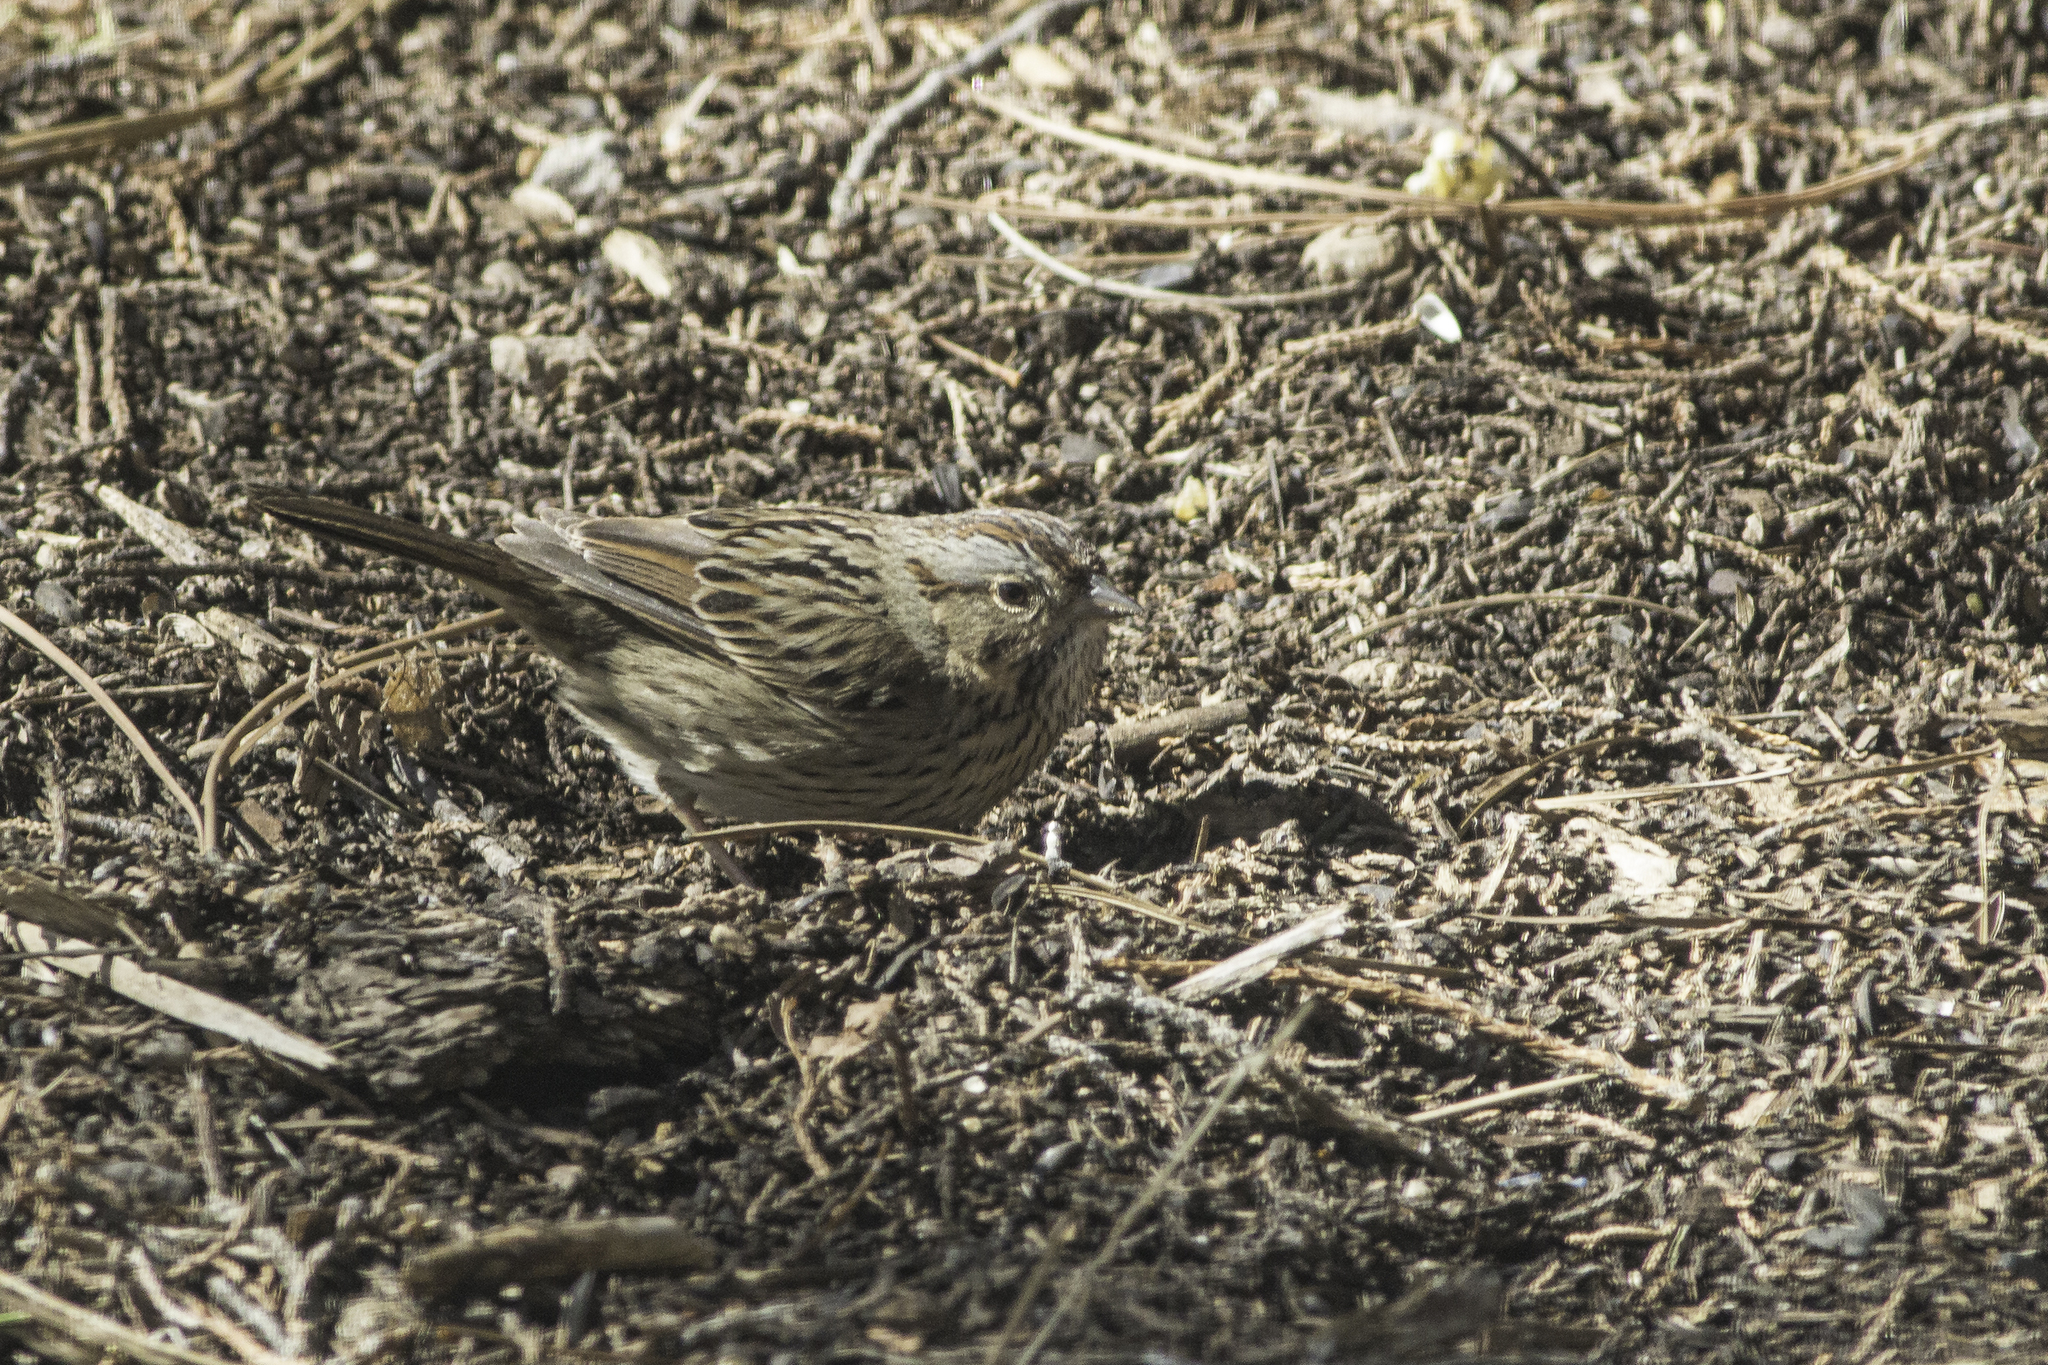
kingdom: Animalia
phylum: Chordata
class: Aves
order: Passeriformes
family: Passerellidae
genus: Melospiza
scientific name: Melospiza lincolnii
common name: Lincoln's sparrow
